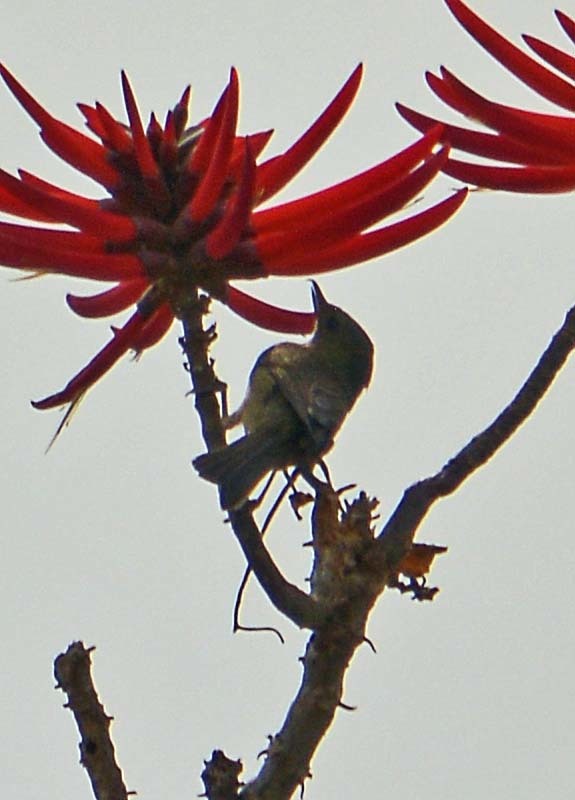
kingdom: Animalia
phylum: Chordata
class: Aves
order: Passeriformes
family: Thraupidae
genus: Diglossa
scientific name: Diglossa baritula
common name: Cinnamon-bellied flowerpiercer
